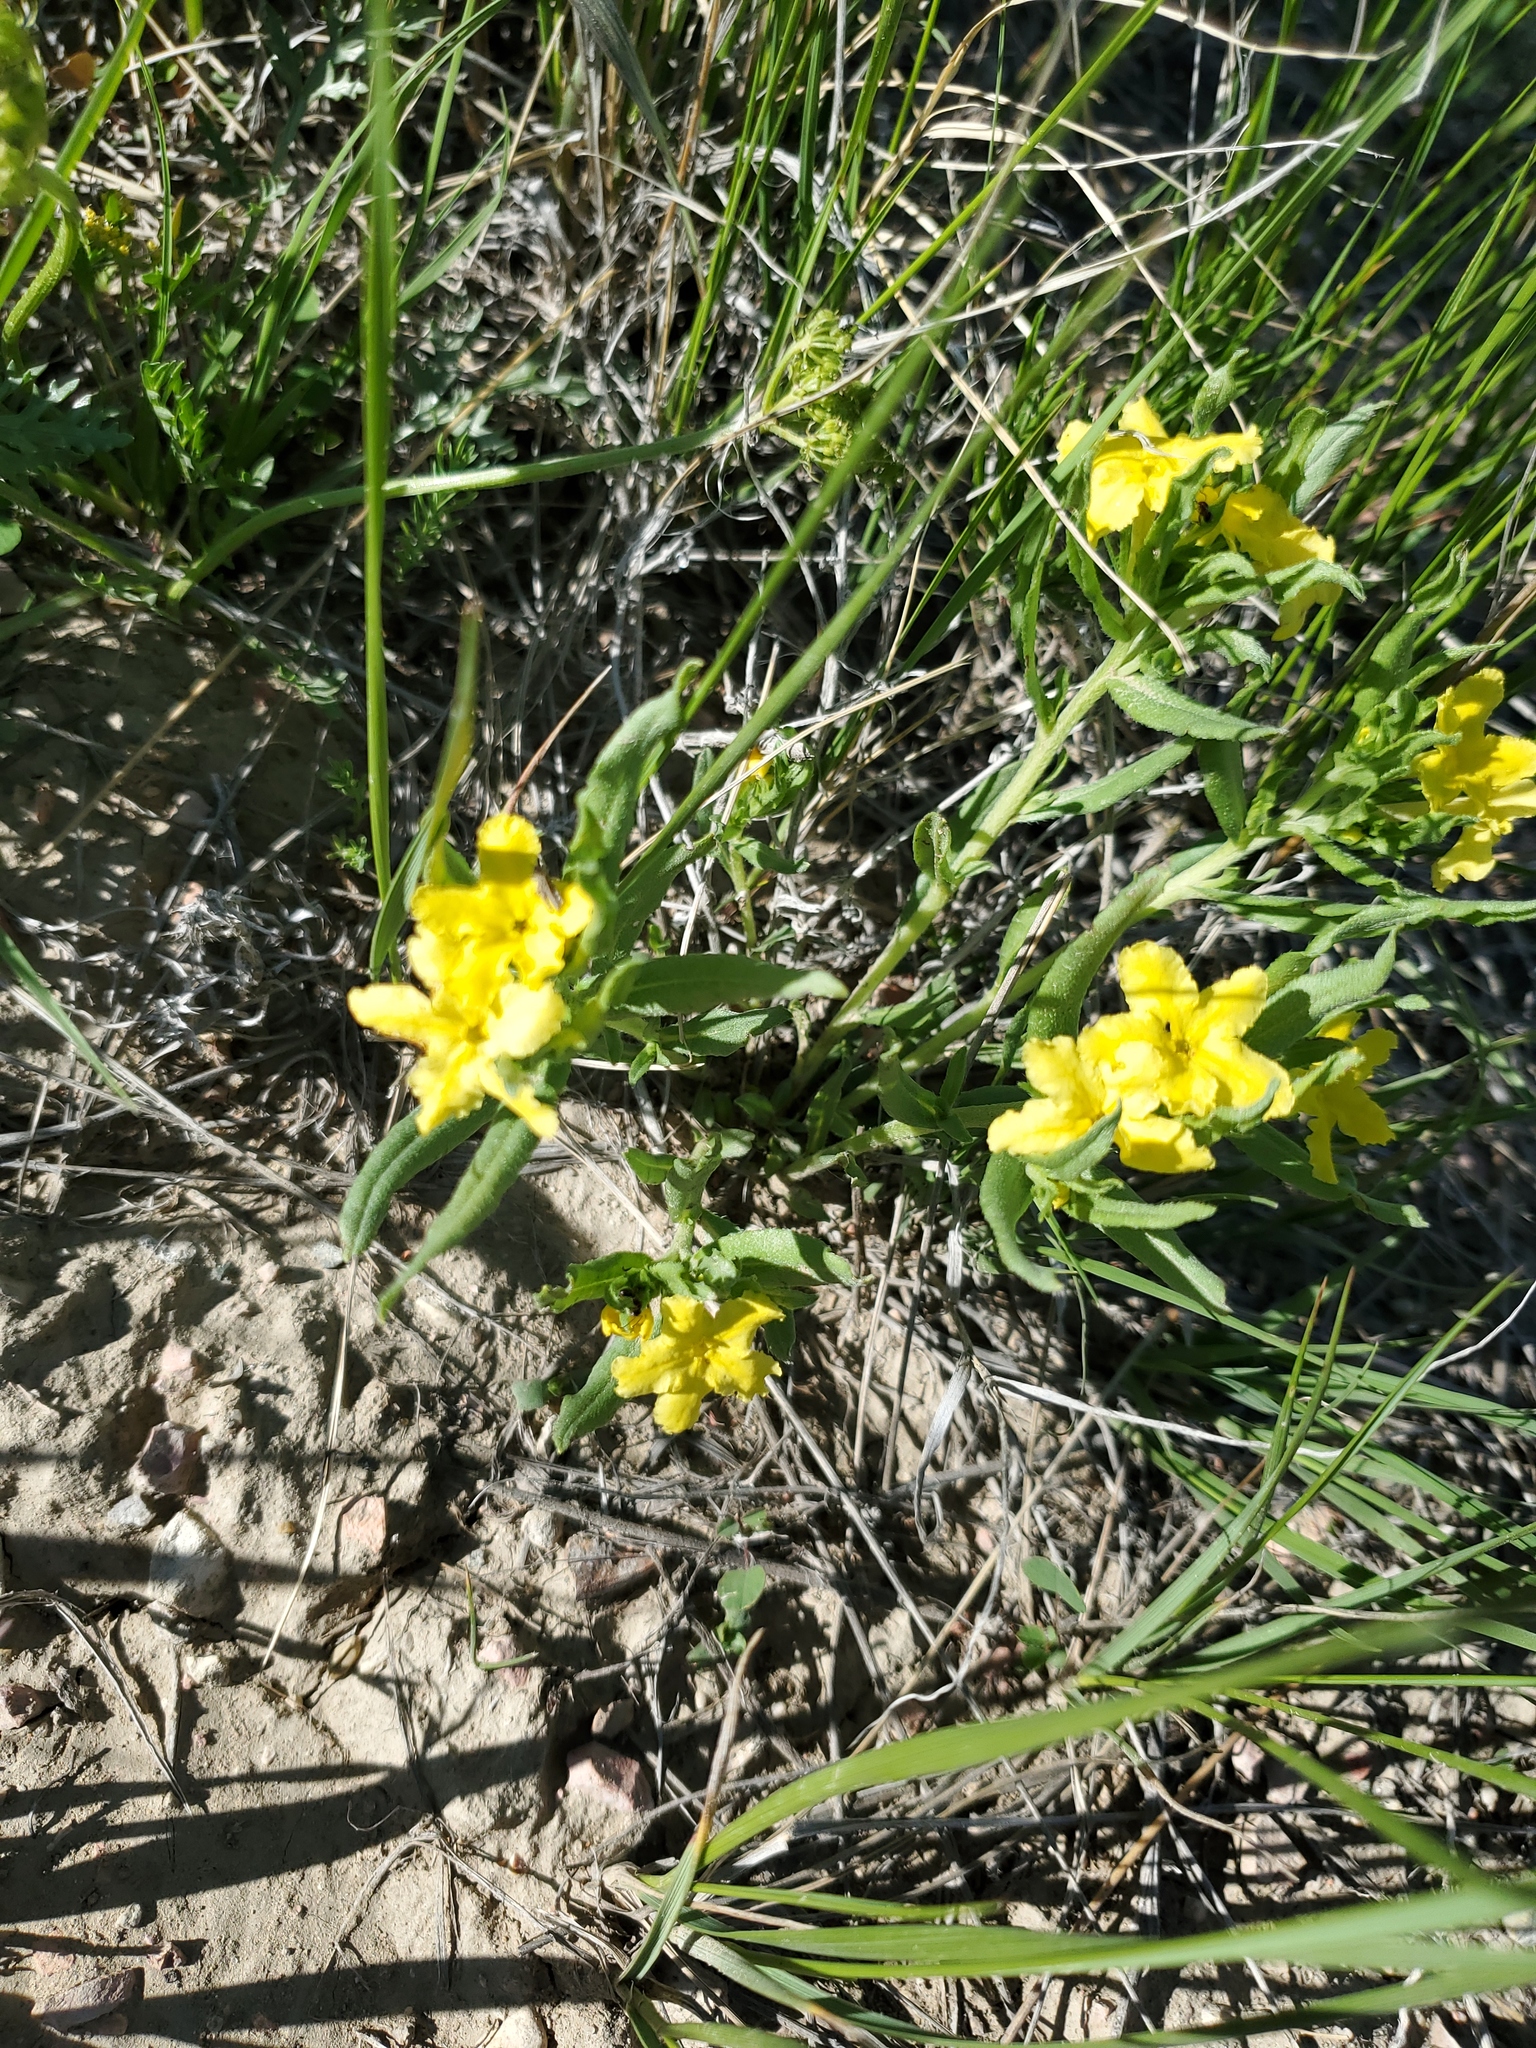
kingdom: Plantae
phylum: Tracheophyta
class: Magnoliopsida
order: Boraginales
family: Boraginaceae
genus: Lithospermum
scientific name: Lithospermum incisum
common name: Fringed gromwell
